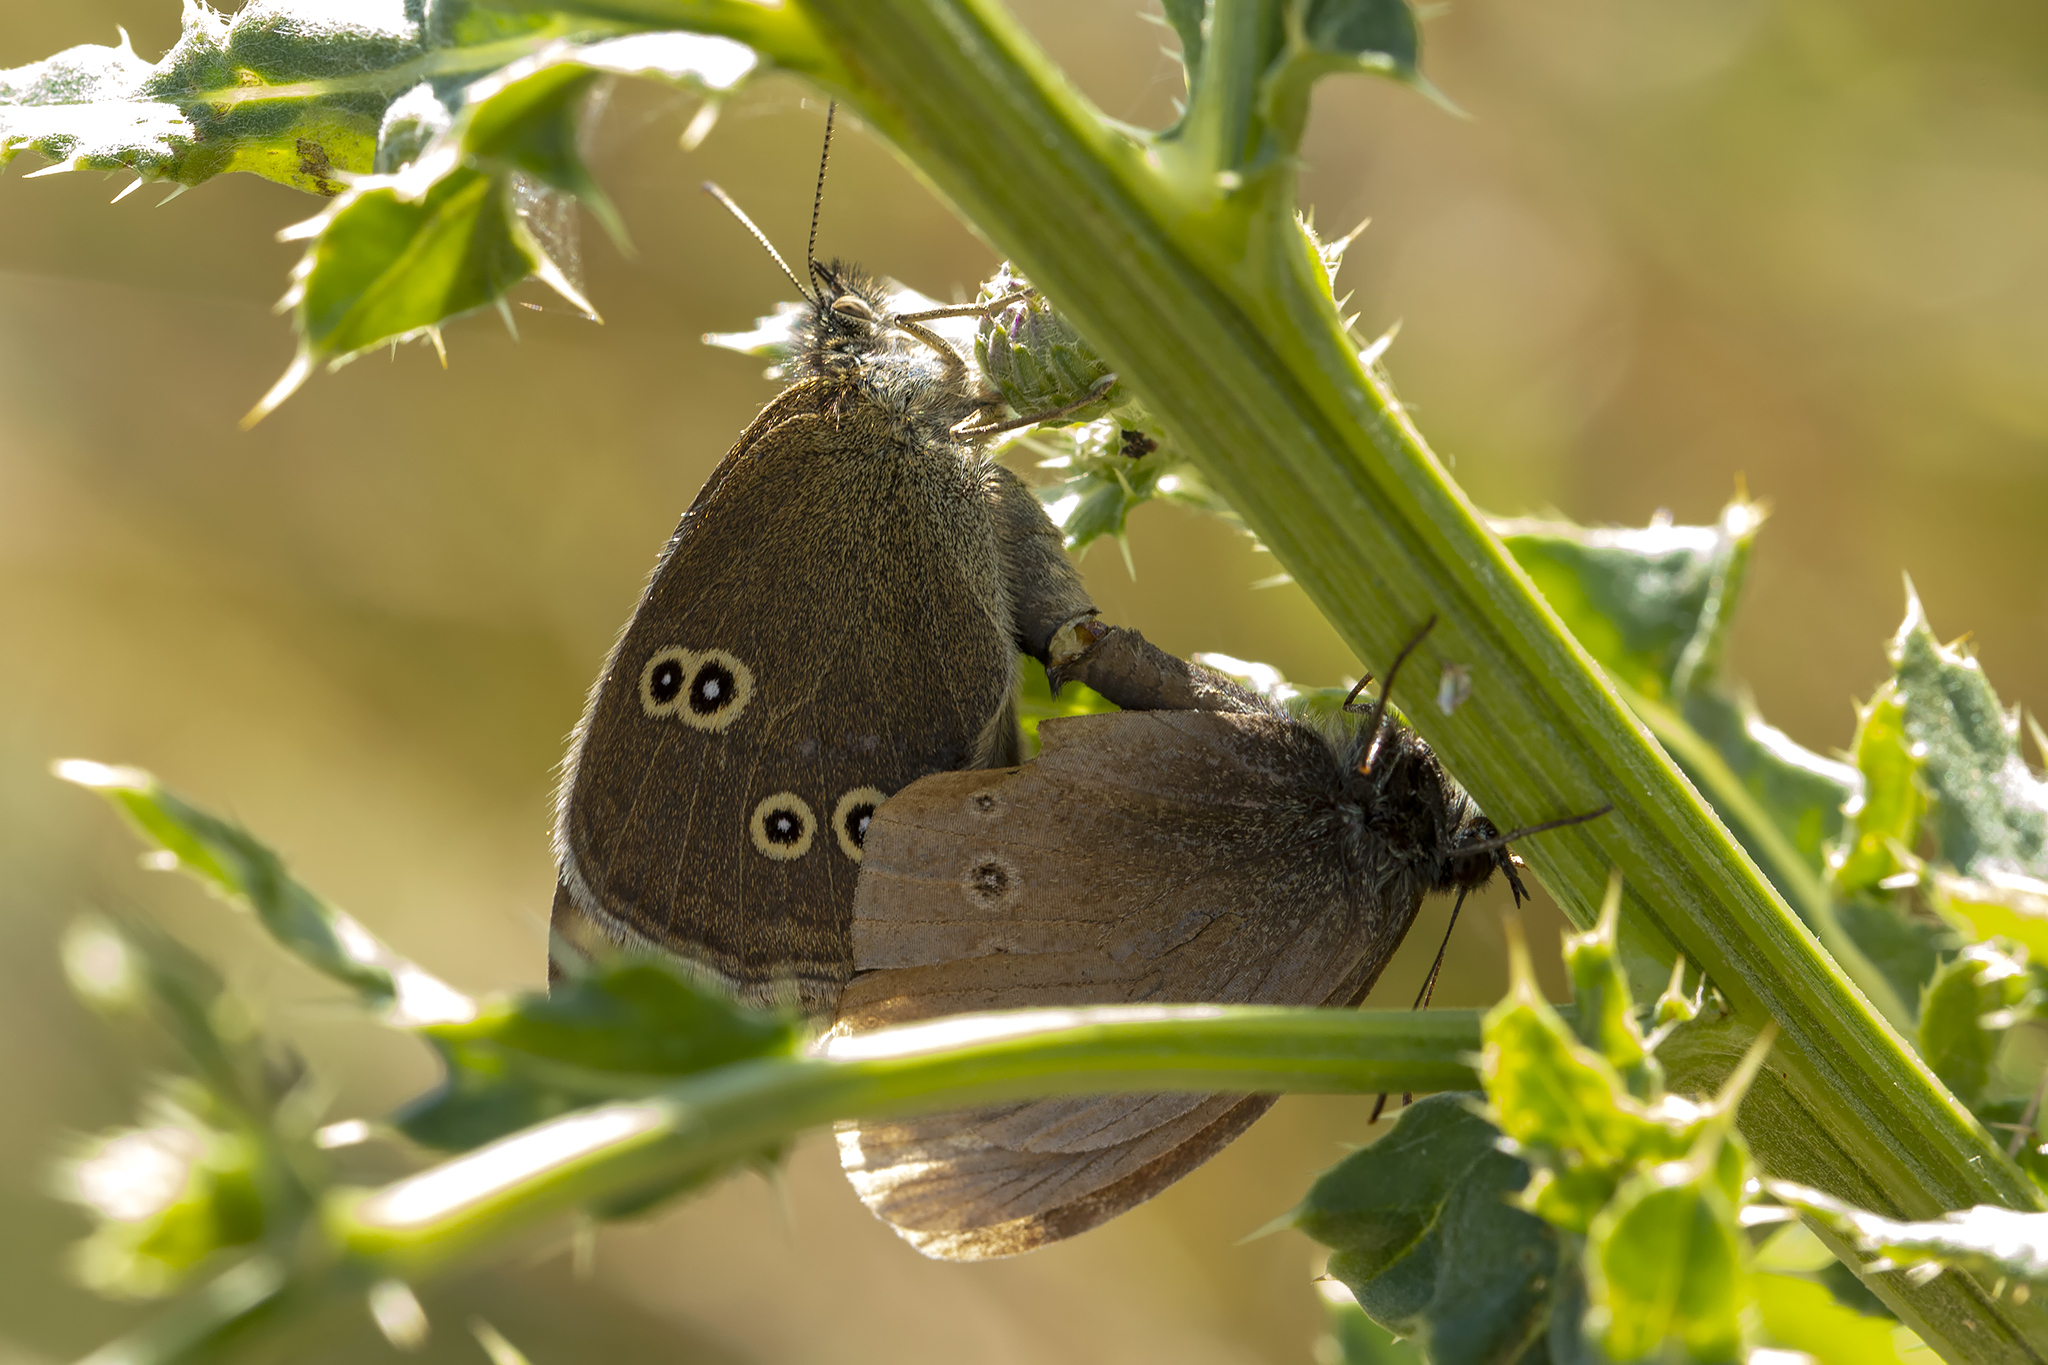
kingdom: Animalia
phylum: Arthropoda
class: Insecta
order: Lepidoptera
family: Nymphalidae
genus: Aphantopus
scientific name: Aphantopus hyperantus
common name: Ringlet
